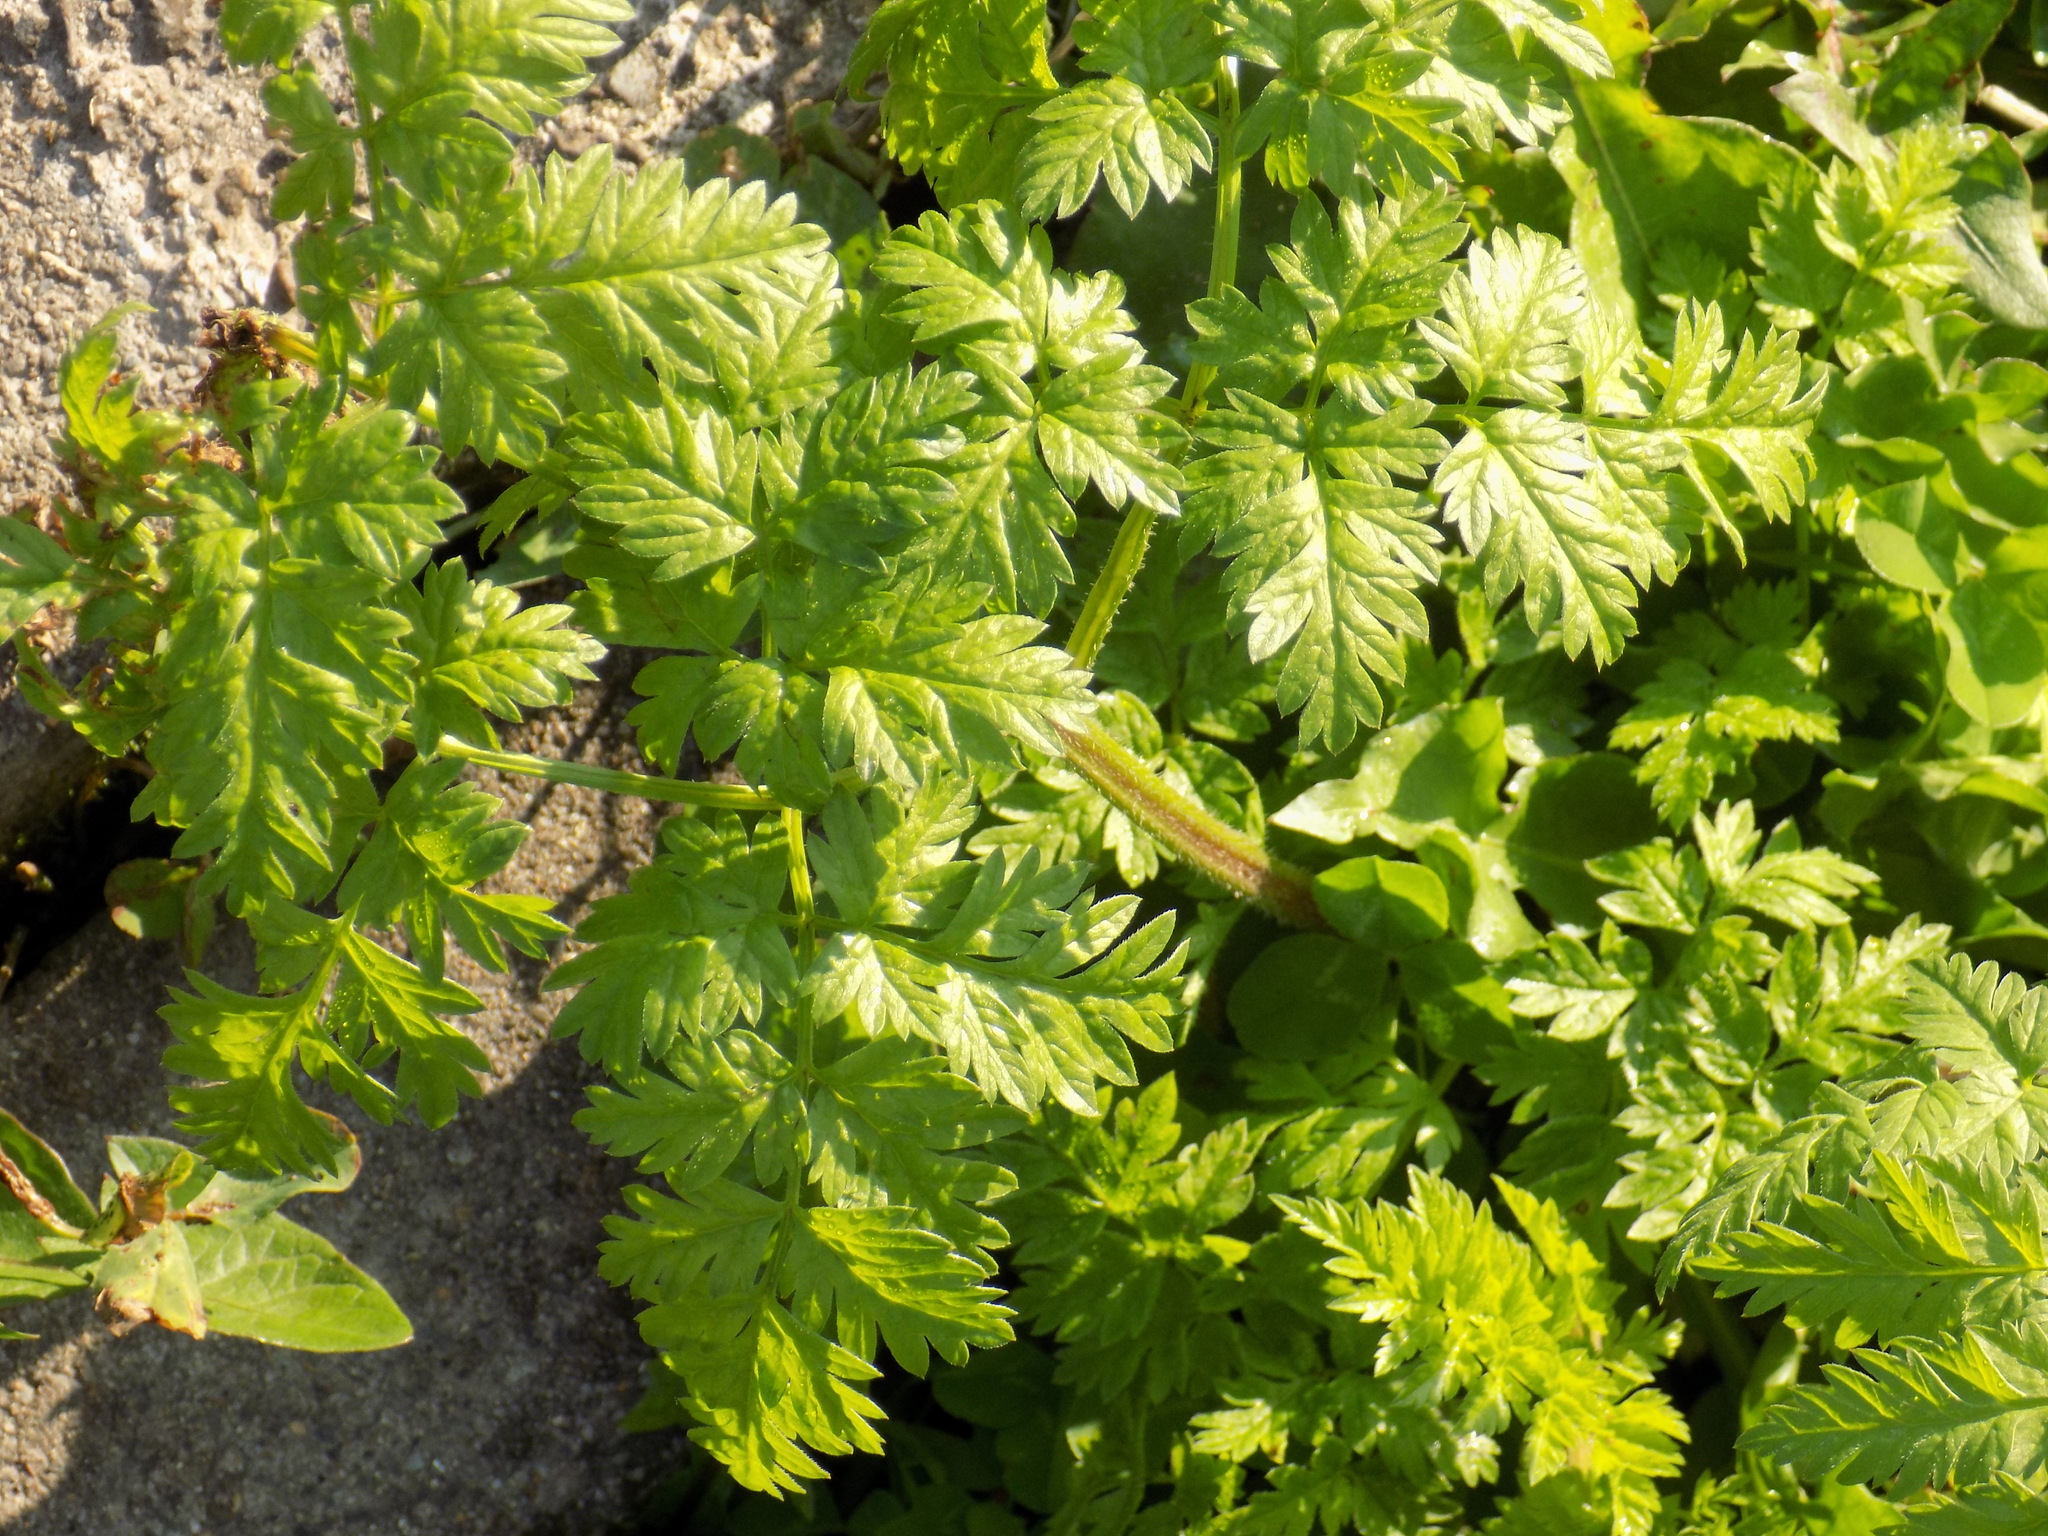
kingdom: Plantae
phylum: Tracheophyta
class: Magnoliopsida
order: Apiales
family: Apiaceae
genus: Anthriscus
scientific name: Anthriscus sylvestris
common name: Cow parsley
